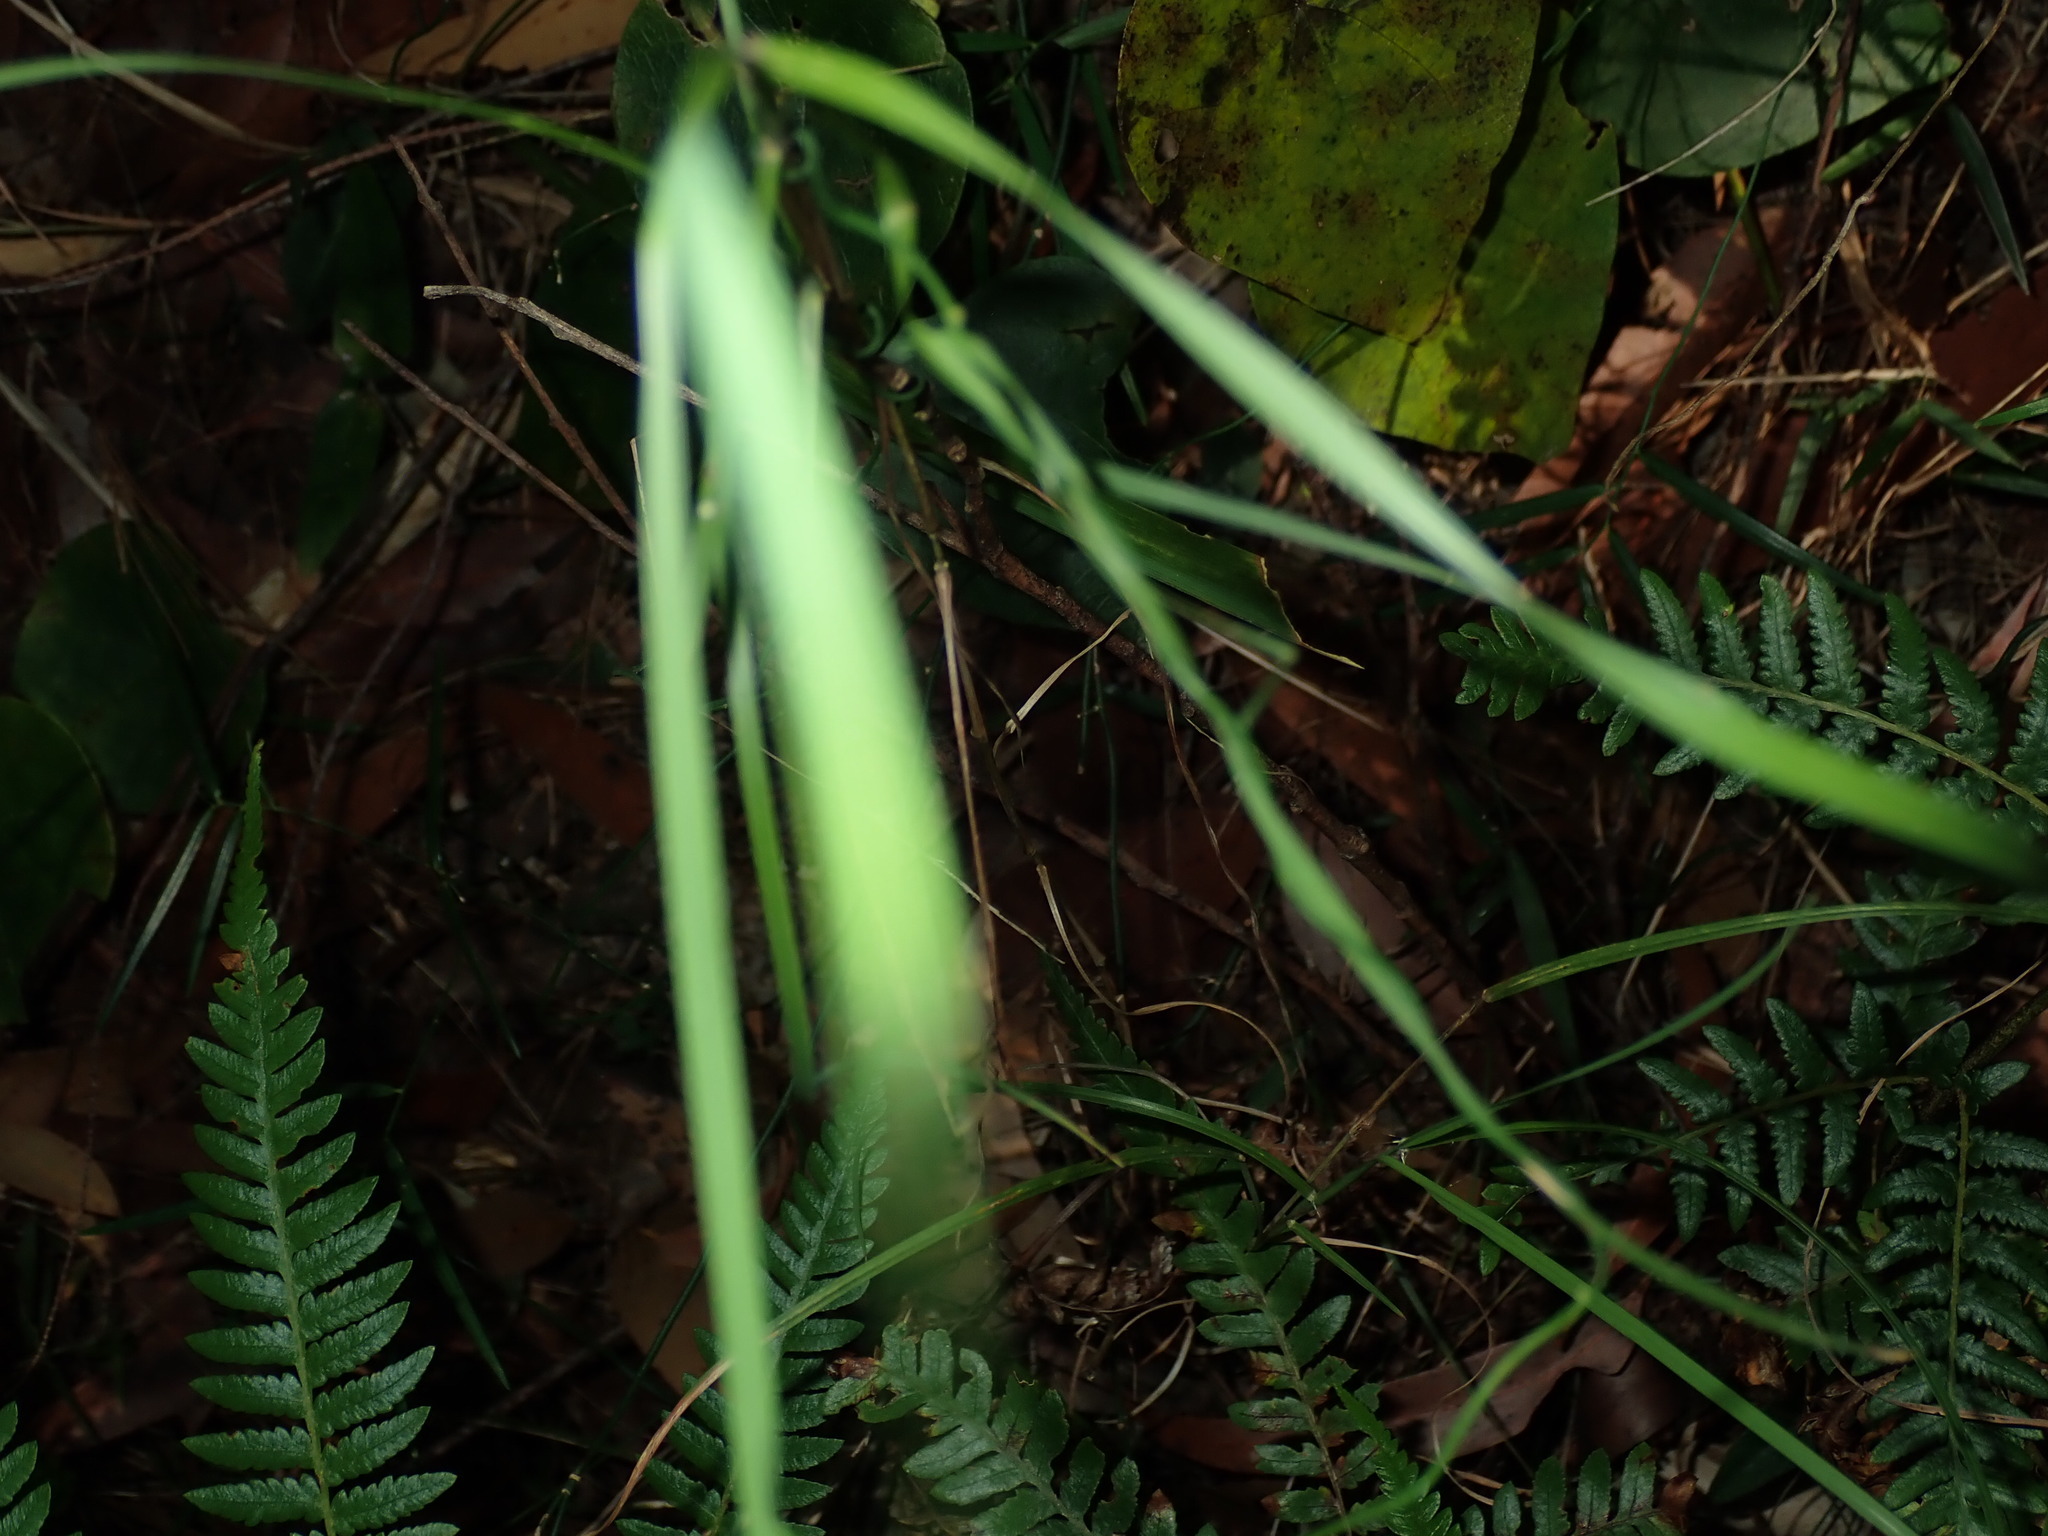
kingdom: Plantae
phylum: Tracheophyta
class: Liliopsida
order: Asparagales
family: Asphodelaceae
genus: Geitonoplesium
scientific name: Geitonoplesium cymosum
